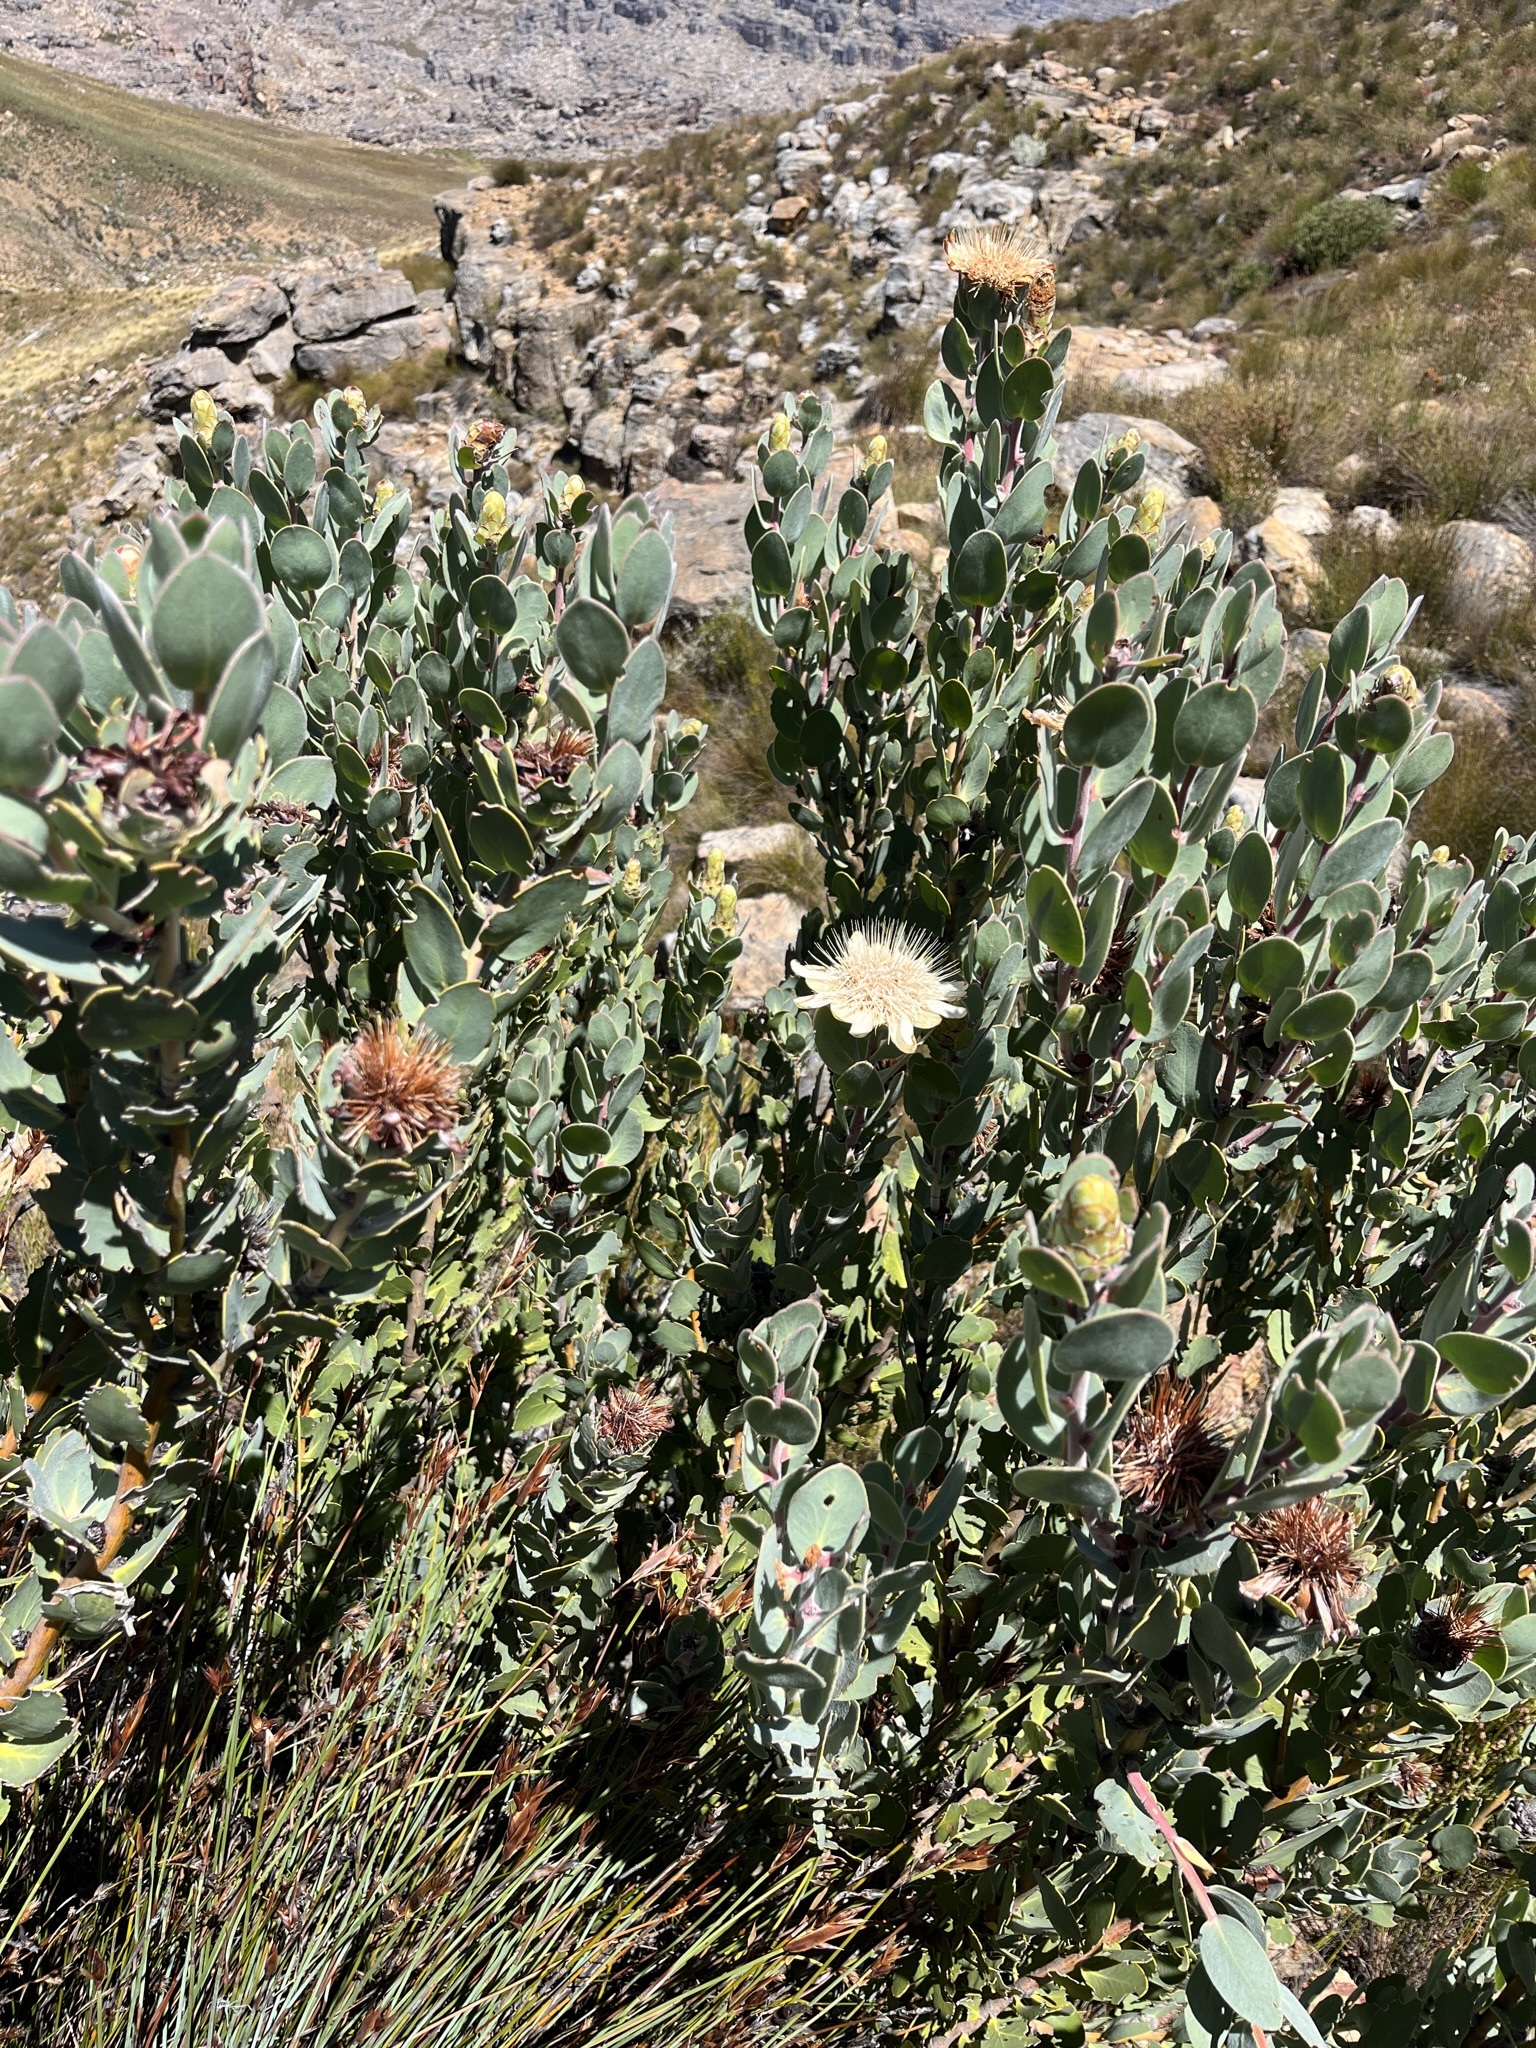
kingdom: Plantae
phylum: Tracheophyta
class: Magnoliopsida
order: Proteales
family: Proteaceae
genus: Protea
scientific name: Protea punctata
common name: Water sugarbush
